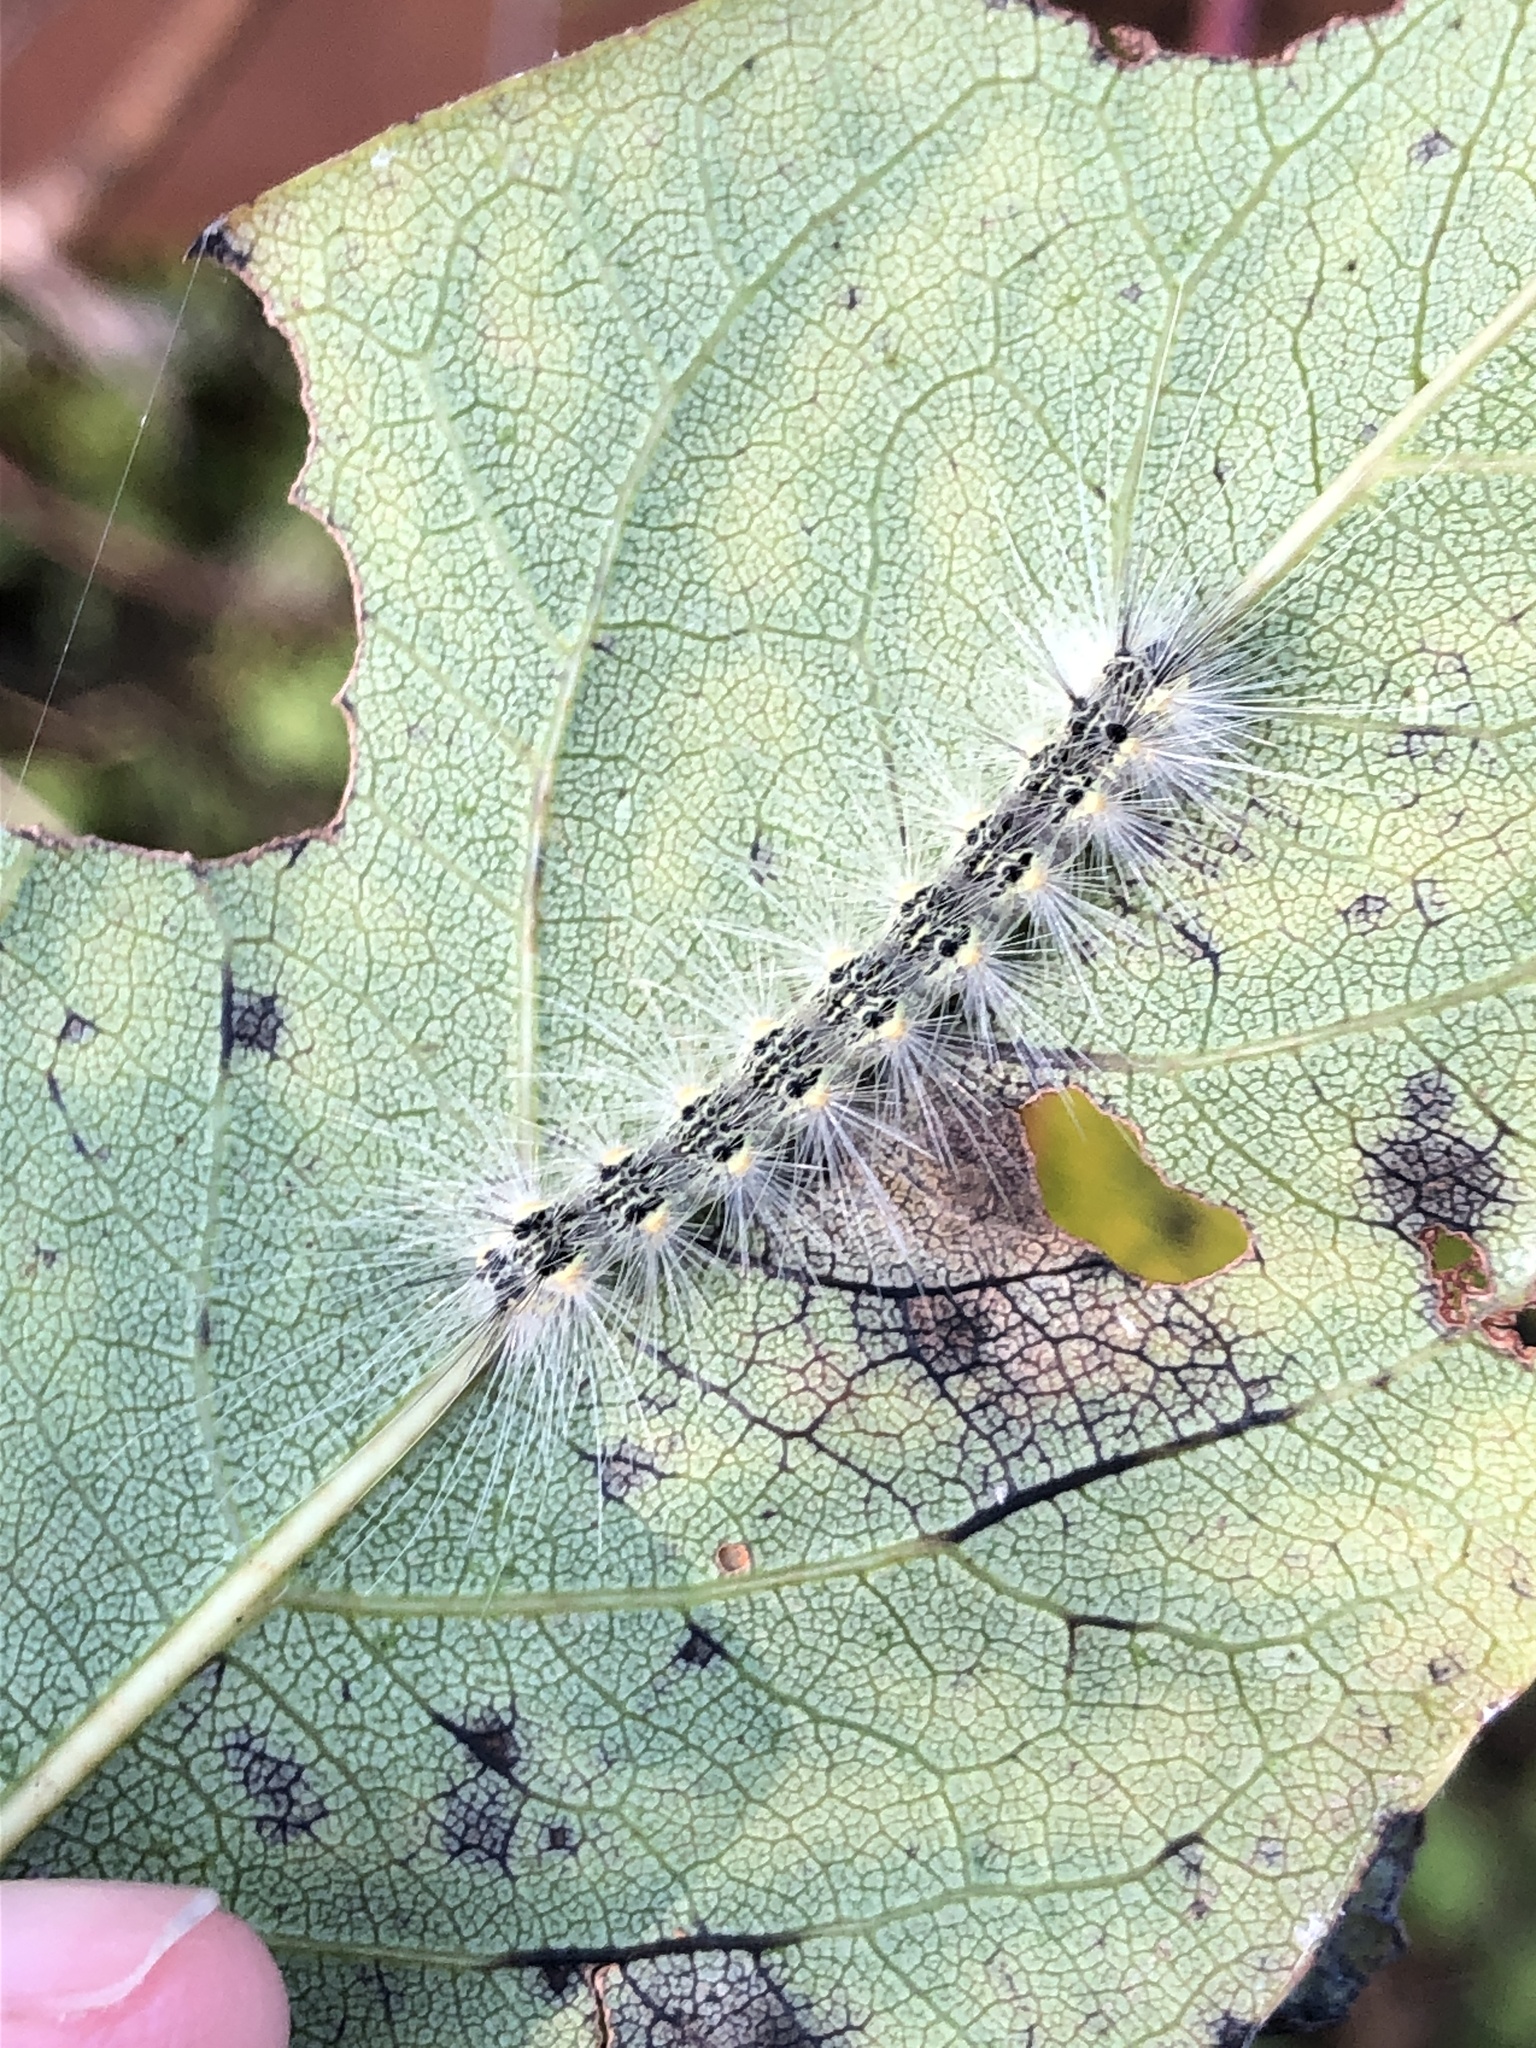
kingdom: Animalia
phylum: Arthropoda
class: Insecta
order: Lepidoptera
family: Erebidae
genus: Hyphantria
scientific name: Hyphantria cunea
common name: American white moth
